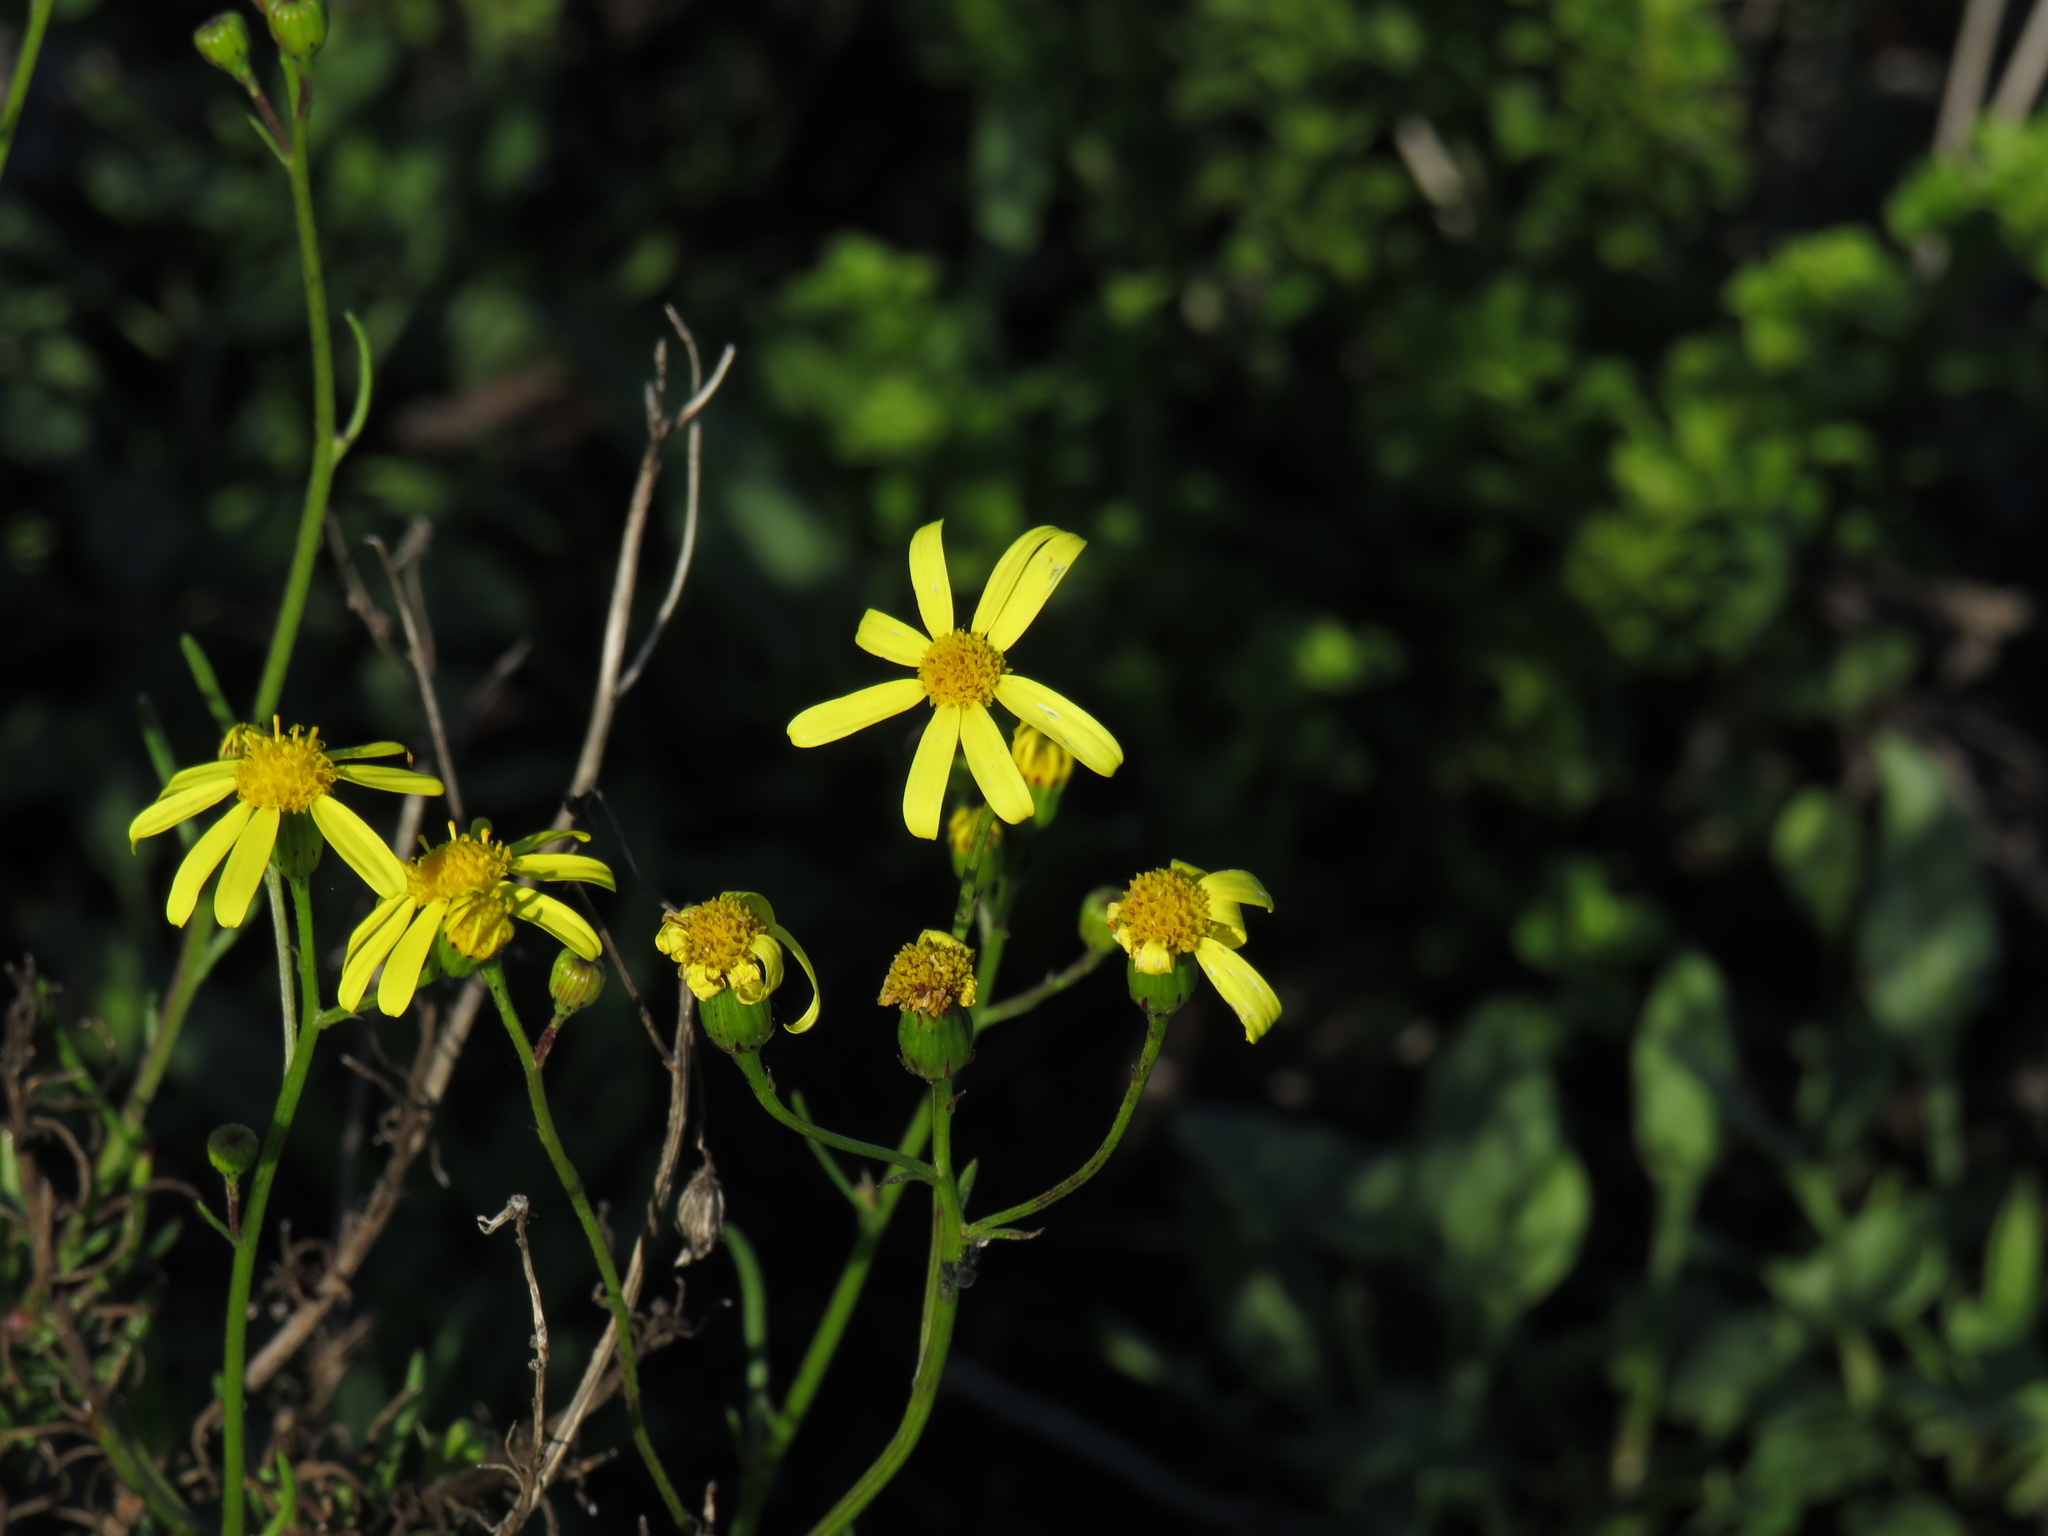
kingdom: Plantae
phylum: Tracheophyta
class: Magnoliopsida
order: Asterales
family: Asteraceae
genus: Senecio
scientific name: Senecio burchellii
